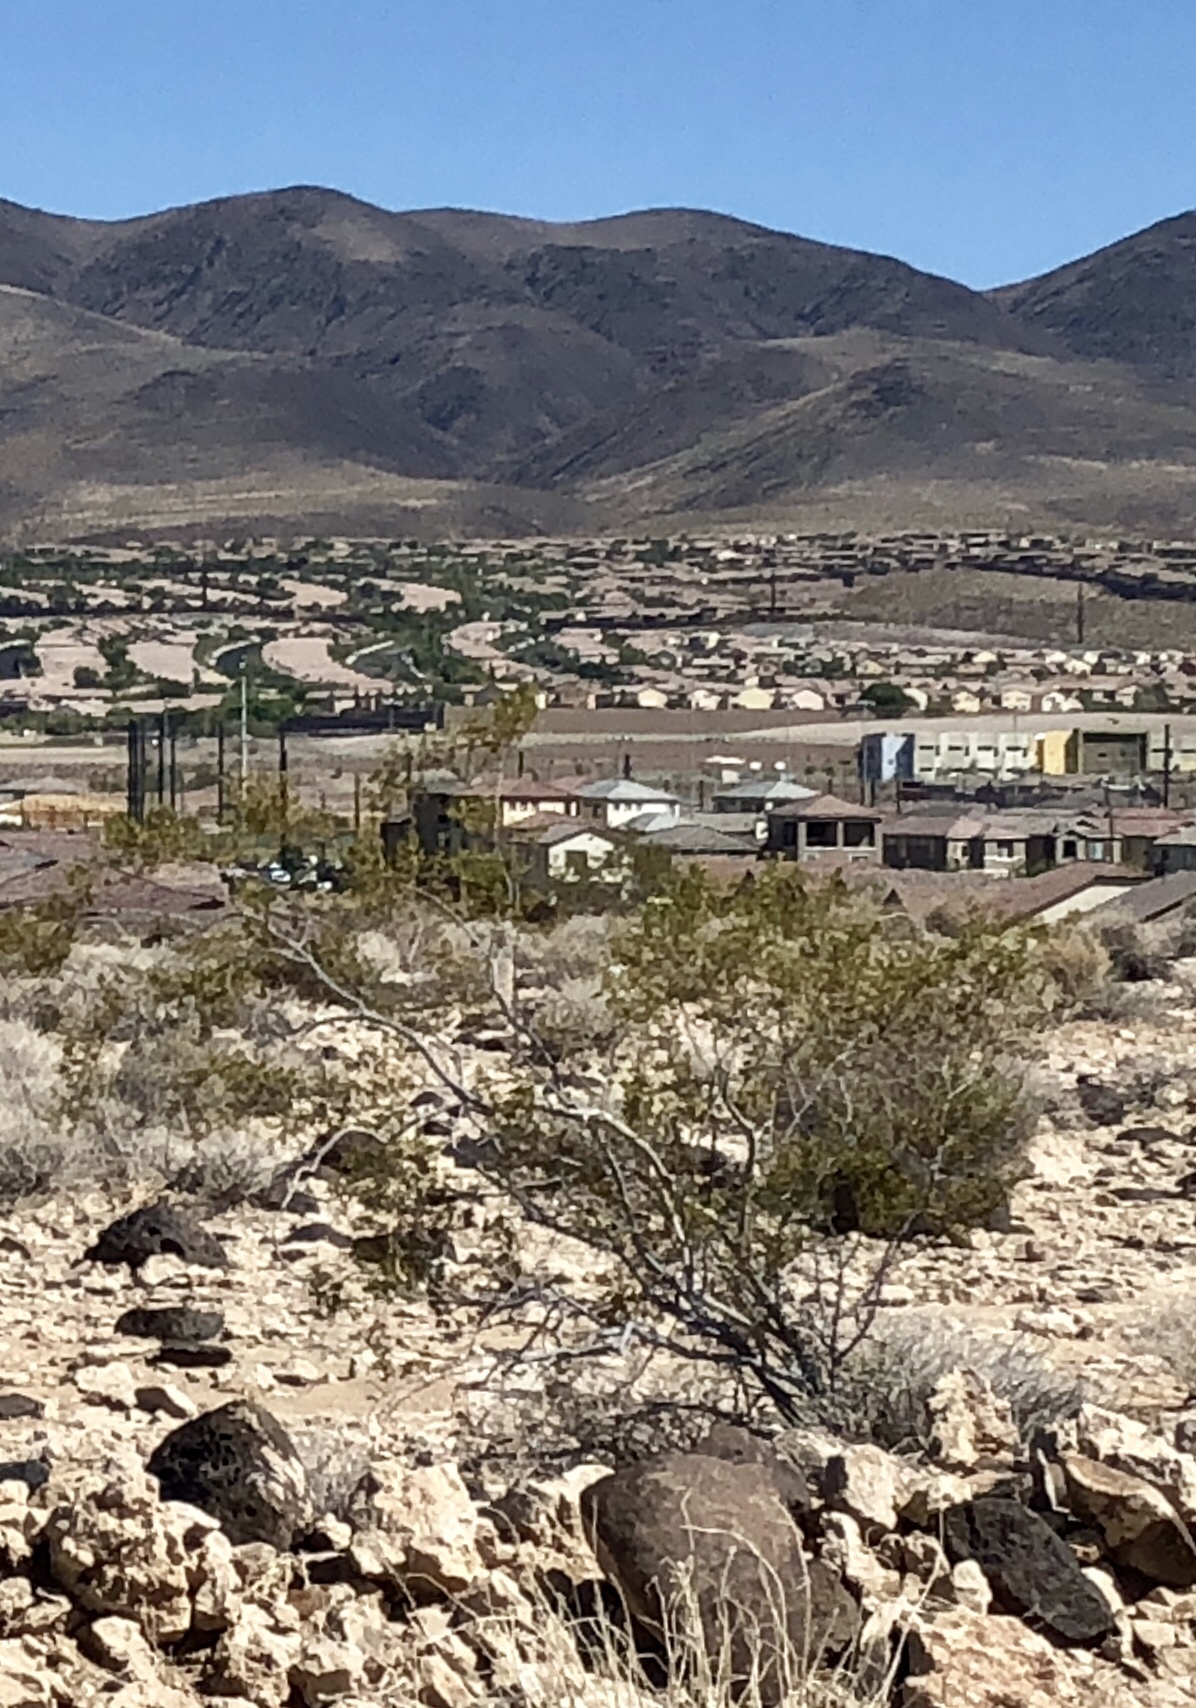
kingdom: Plantae
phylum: Tracheophyta
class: Magnoliopsida
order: Zygophyllales
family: Zygophyllaceae
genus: Larrea
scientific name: Larrea tridentata
